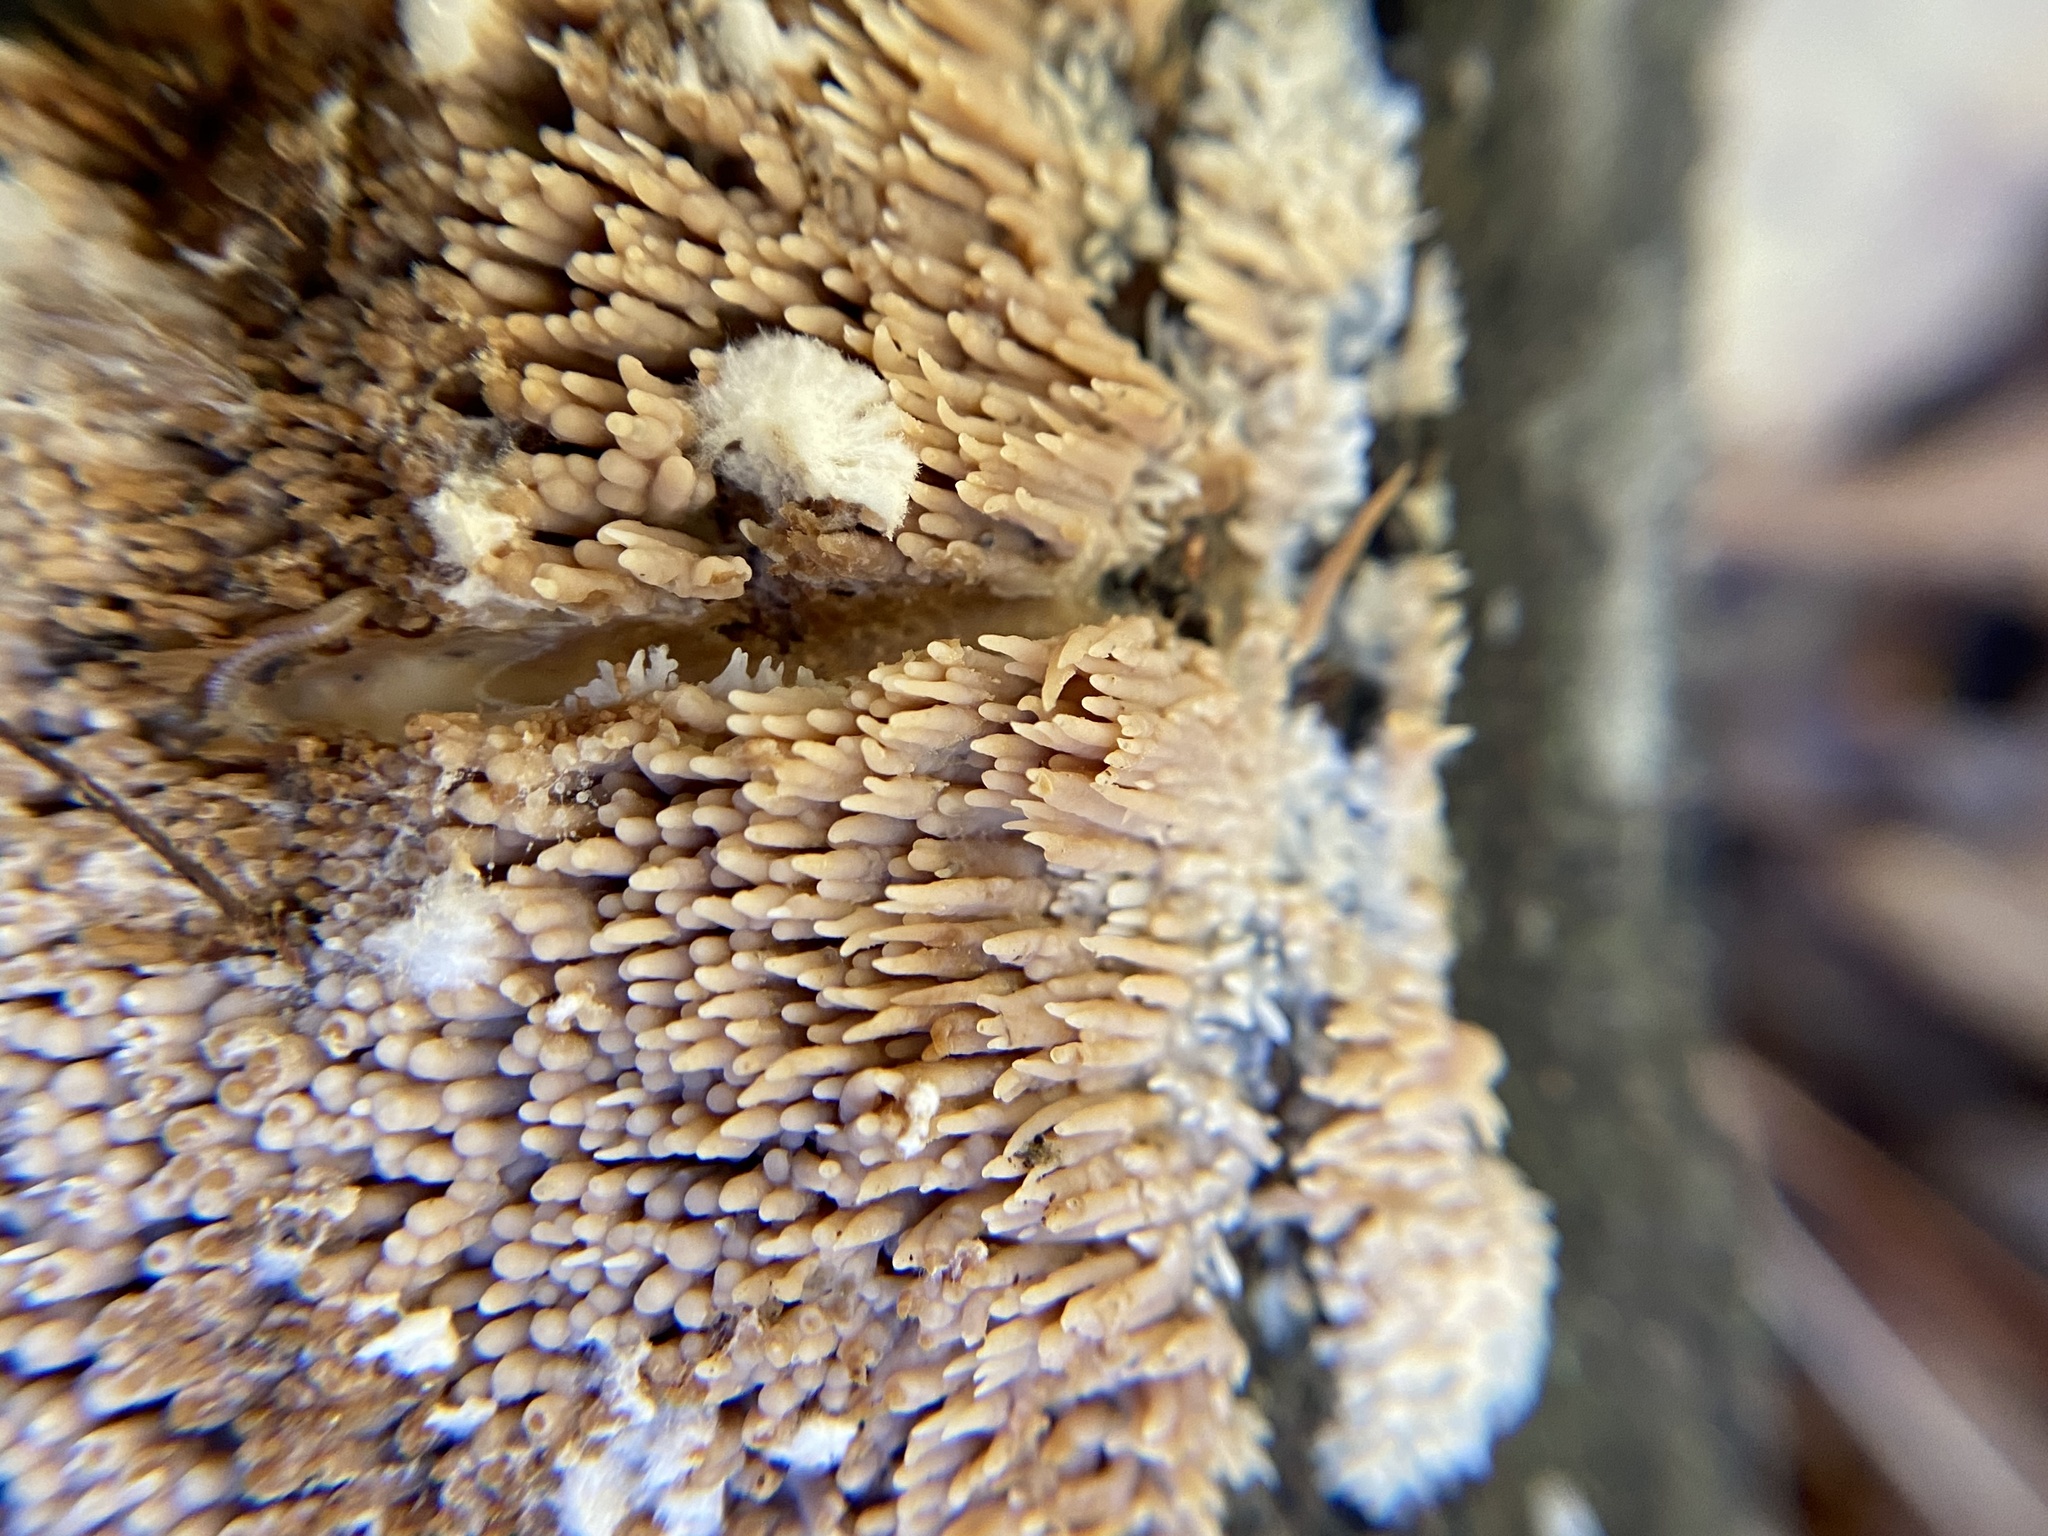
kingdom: Fungi
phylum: Basidiomycota
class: Agaricomycetes
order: Agaricales
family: Radulomycetaceae
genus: Radulomyces
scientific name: Radulomyces copelandii
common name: Asian beauty
